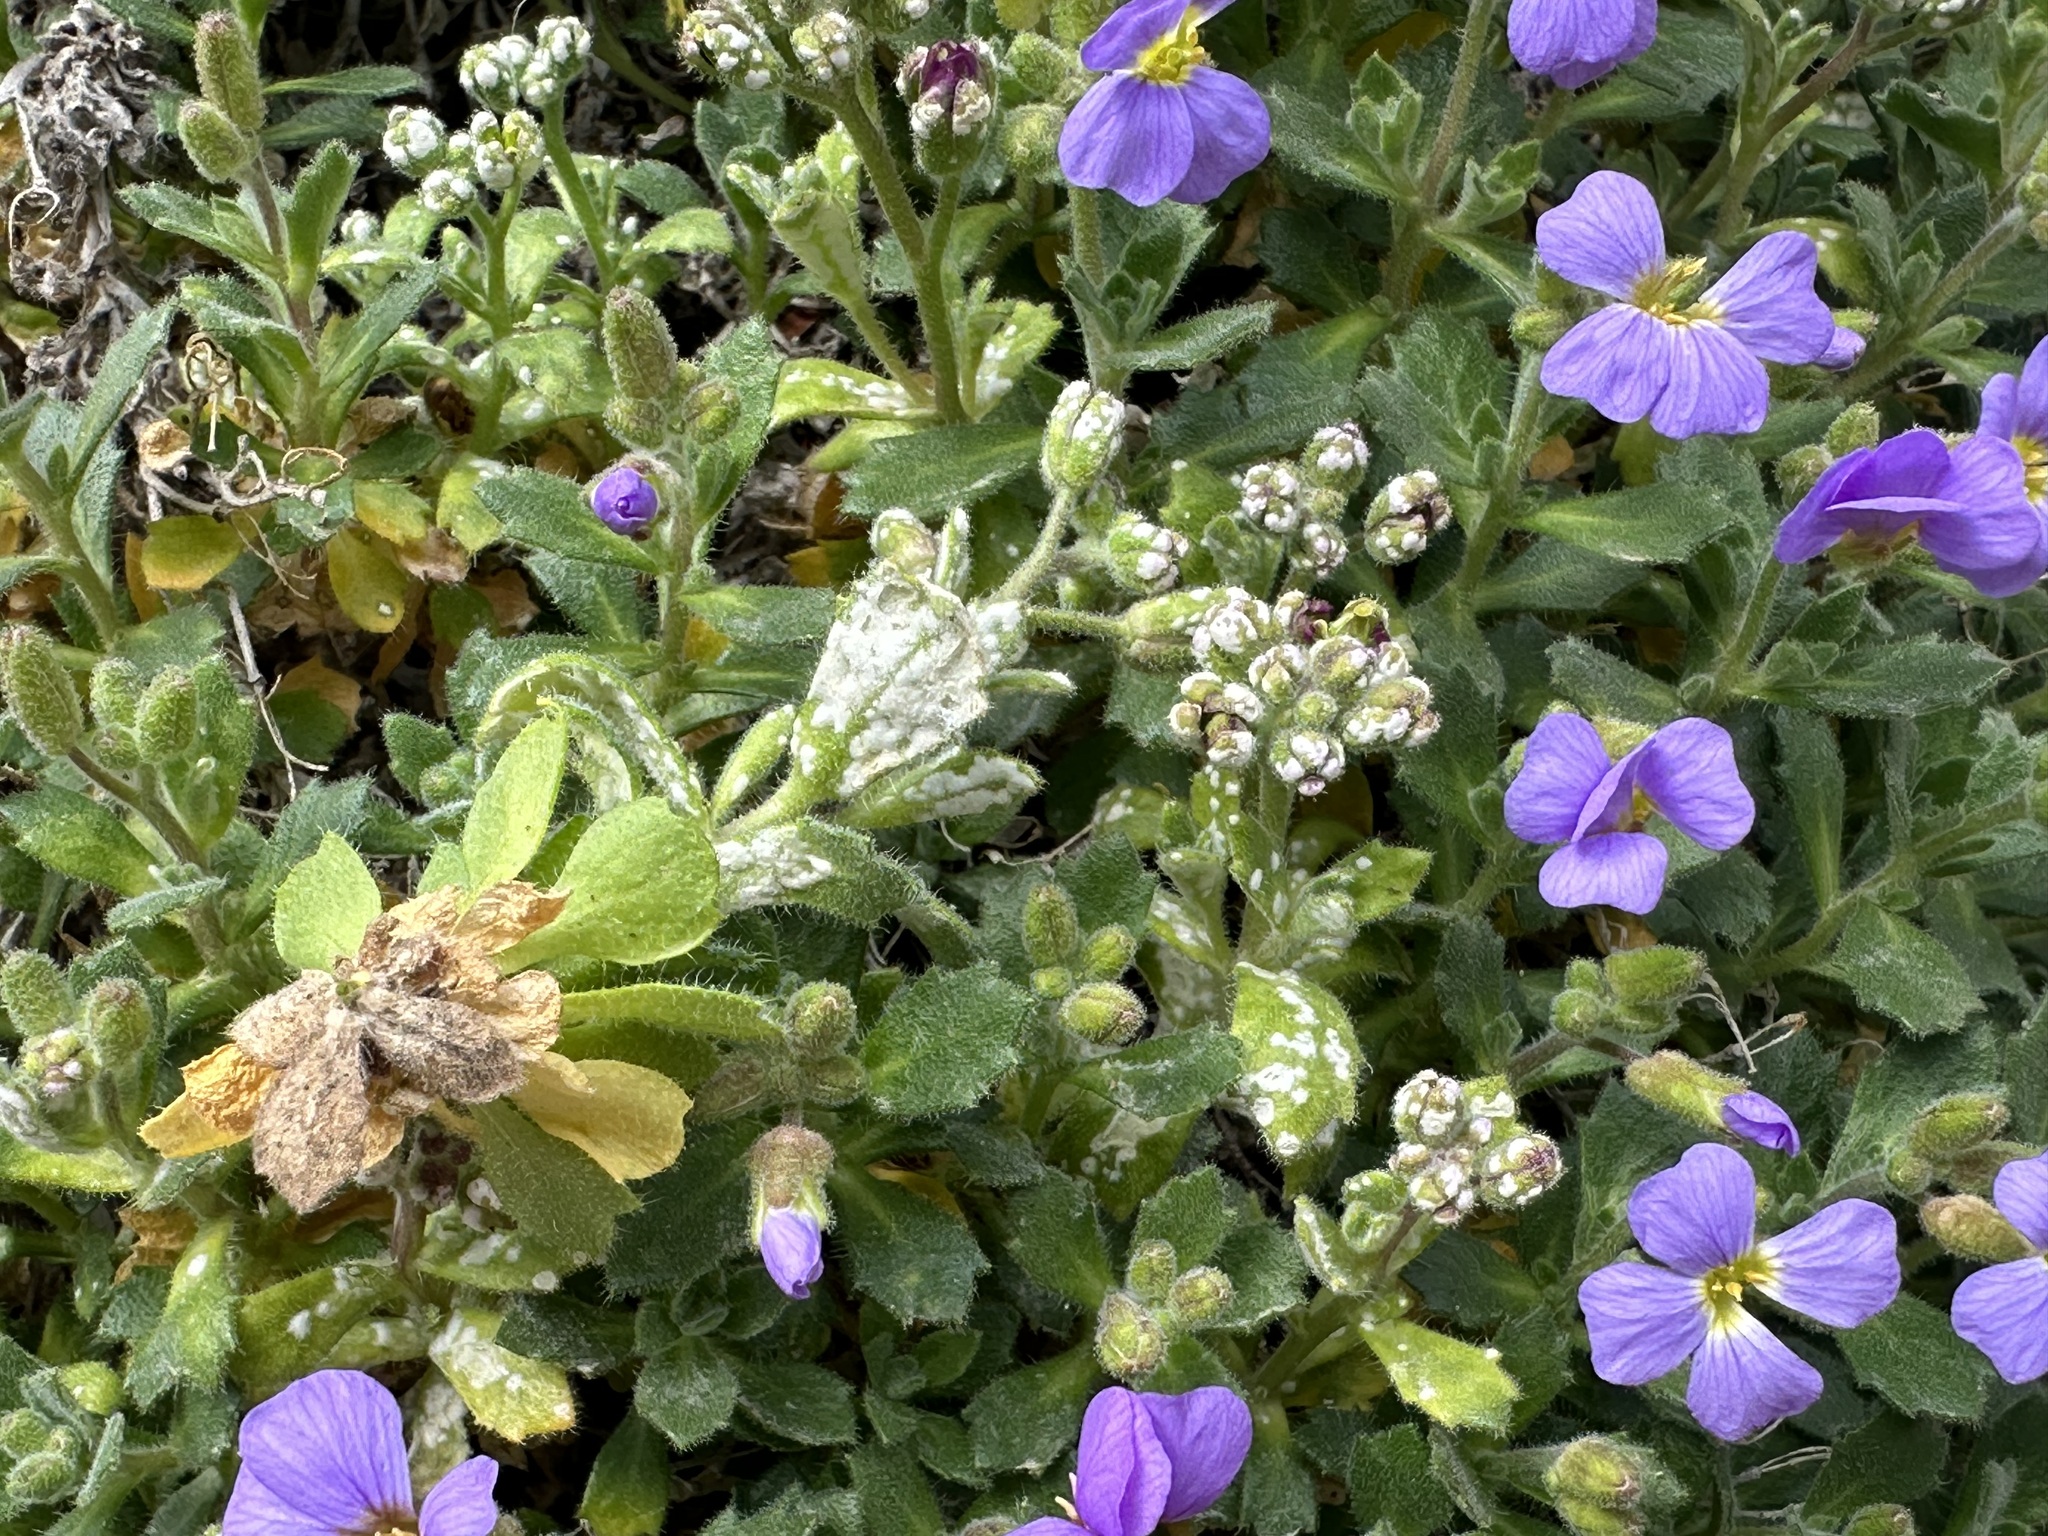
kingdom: Chromista
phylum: Oomycota
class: Peronosporea
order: Albuginales
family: Albuginaceae
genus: Albugo
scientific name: Albugo candida
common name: Crucifer white blister
